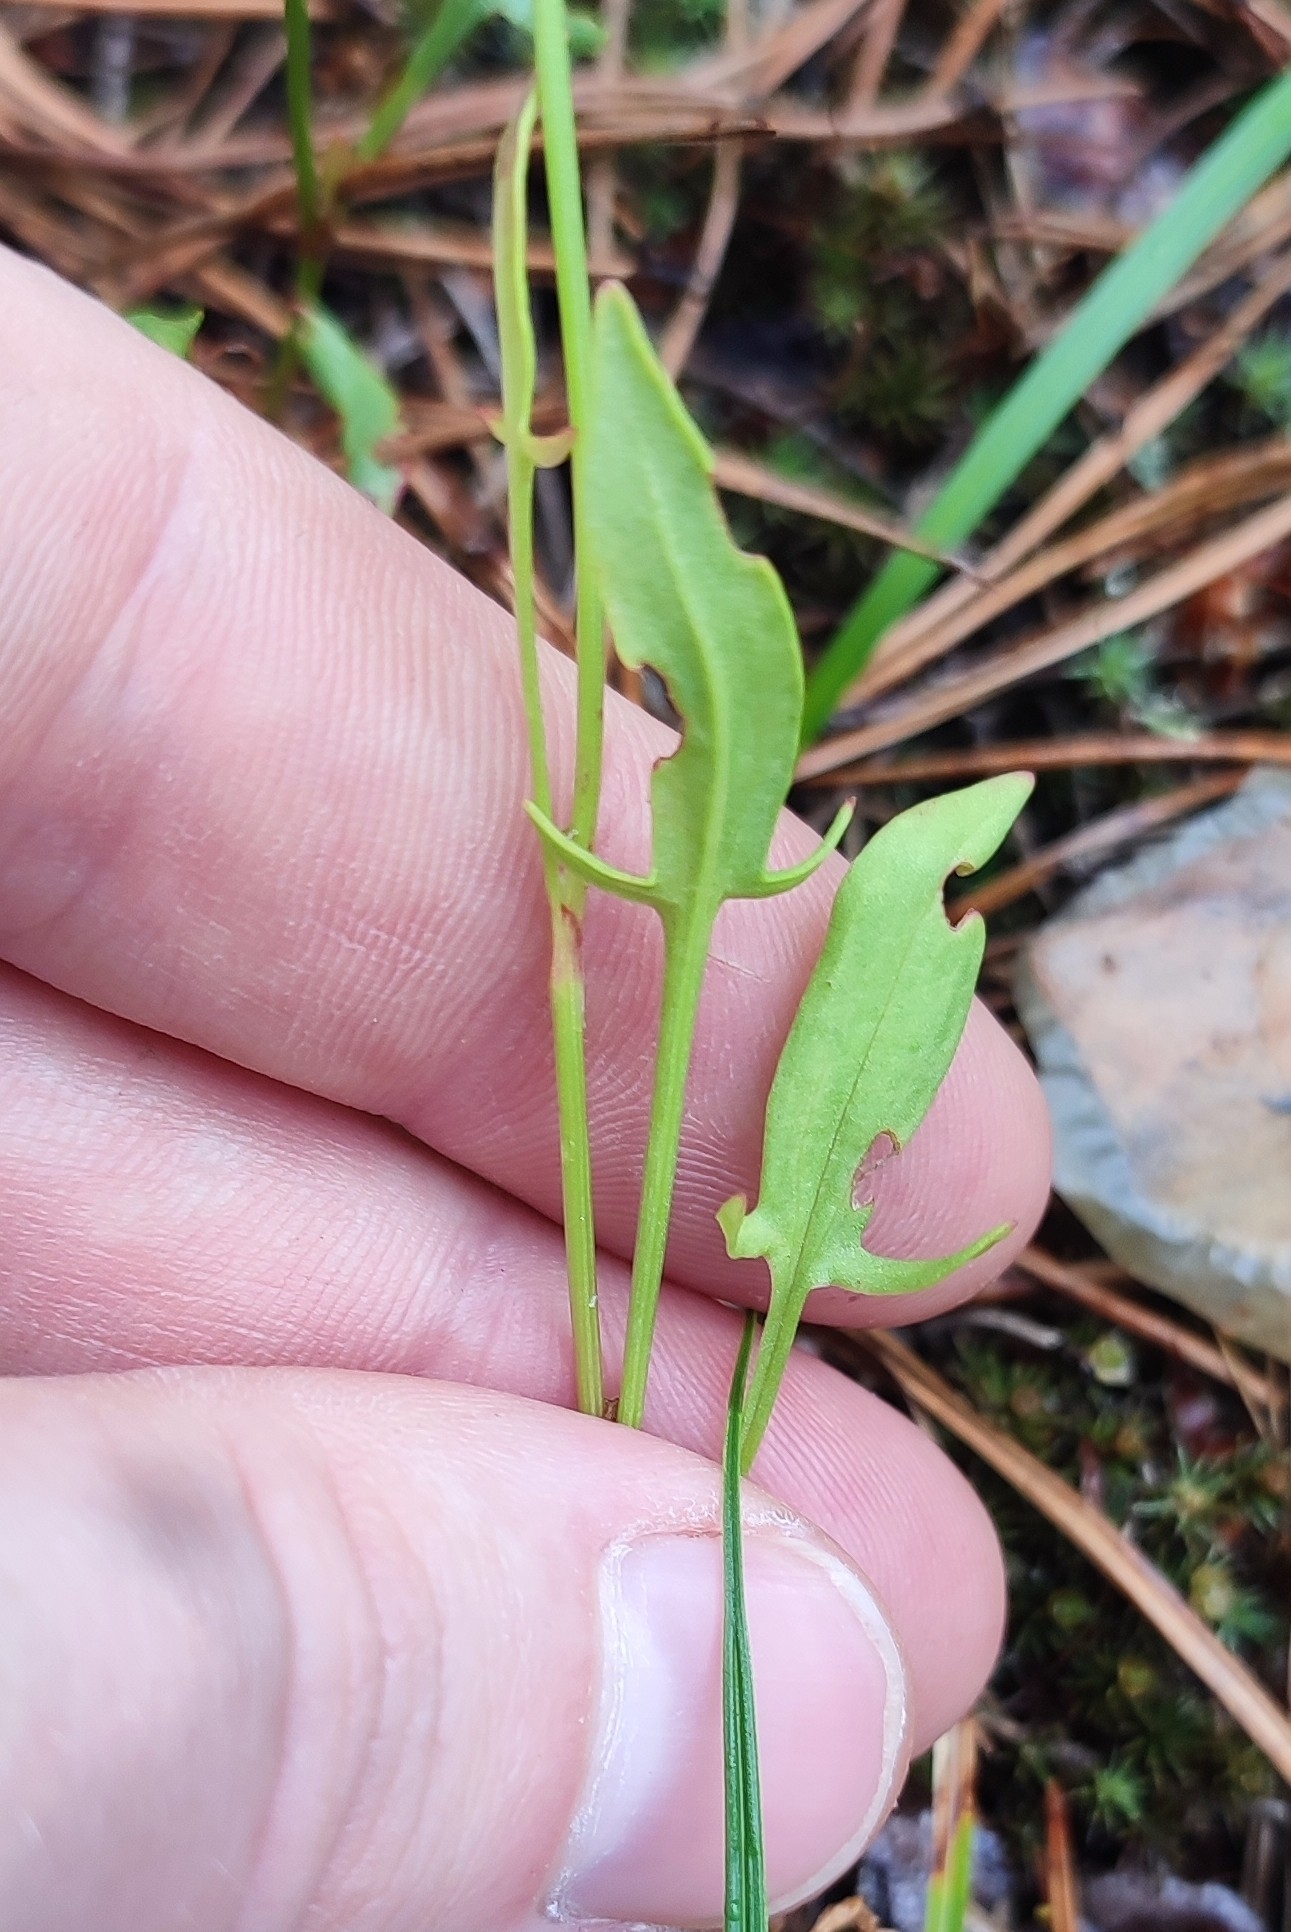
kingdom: Plantae
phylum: Tracheophyta
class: Magnoliopsida
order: Caryophyllales
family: Polygonaceae
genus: Rumex
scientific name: Rumex acetosella
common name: Common sheep sorrel
